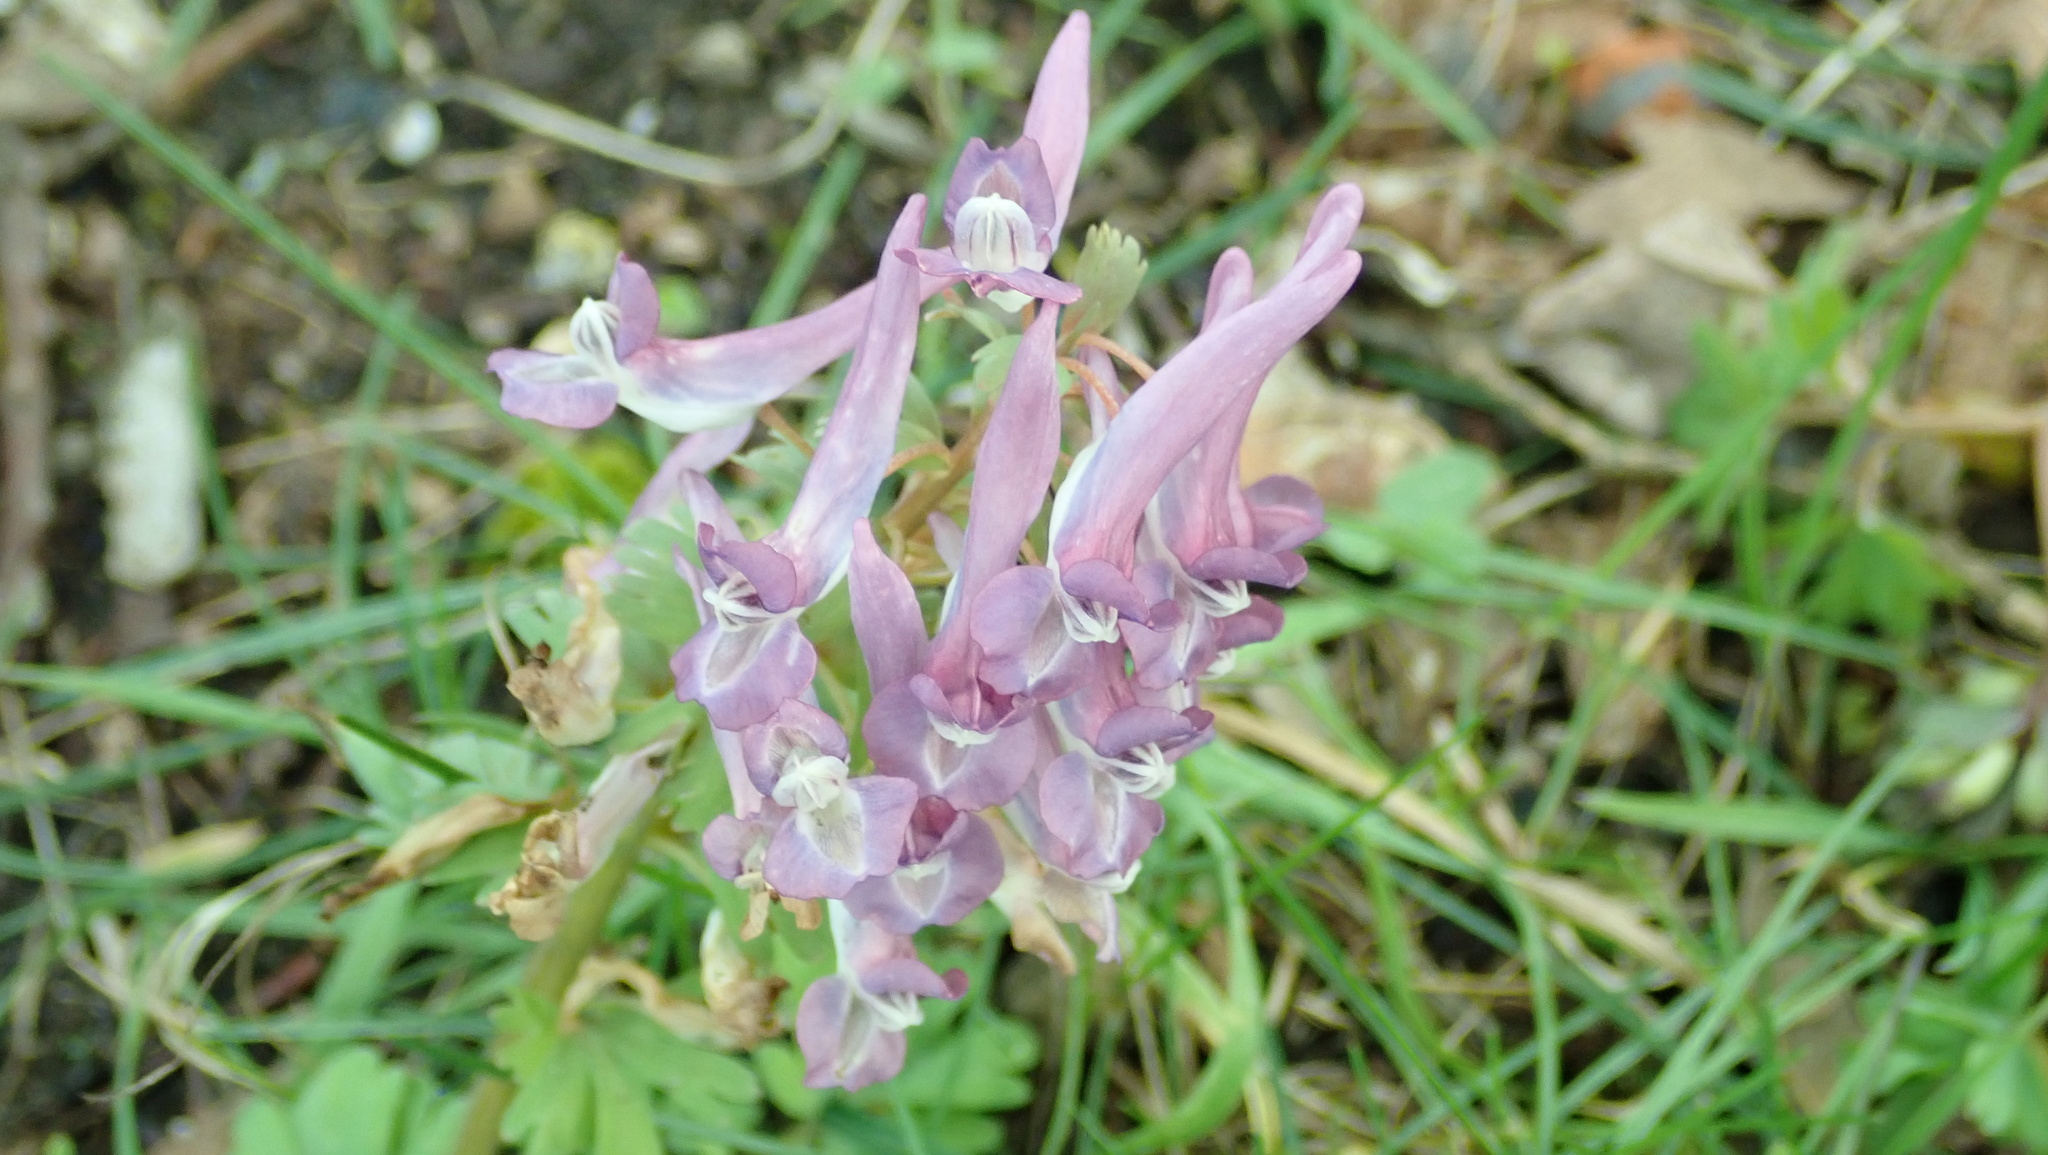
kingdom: Plantae
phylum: Tracheophyta
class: Magnoliopsida
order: Ranunculales
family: Papaveraceae
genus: Corydalis
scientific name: Corydalis solida
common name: Bird-in-a-bush
